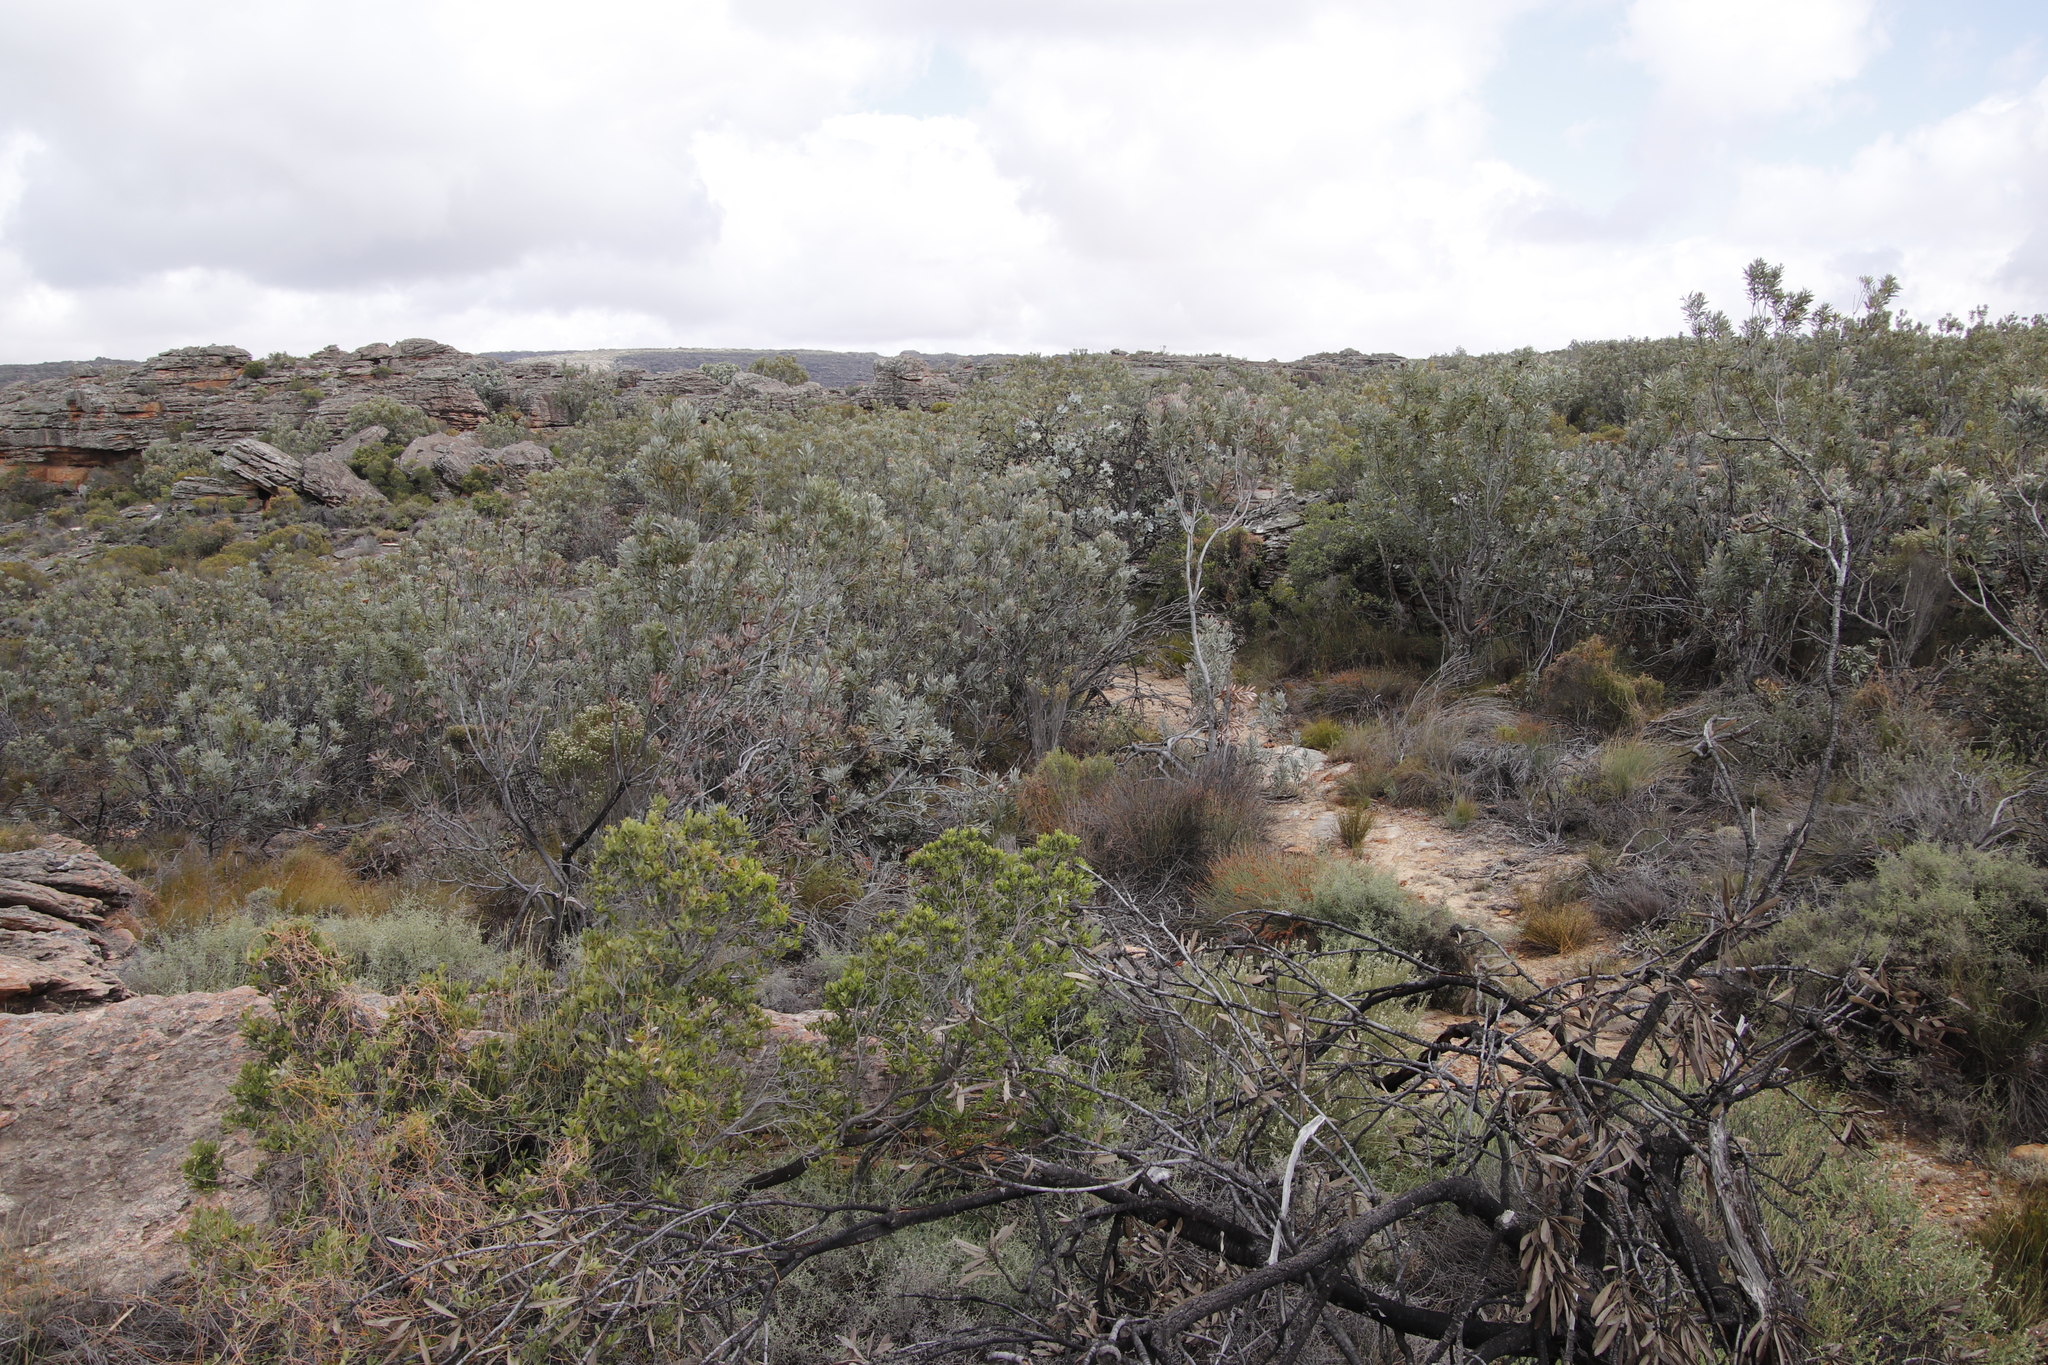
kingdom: Plantae
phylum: Tracheophyta
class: Magnoliopsida
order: Proteales
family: Proteaceae
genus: Protea
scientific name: Protea laurifolia
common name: Grey-leaf sugarbsh
